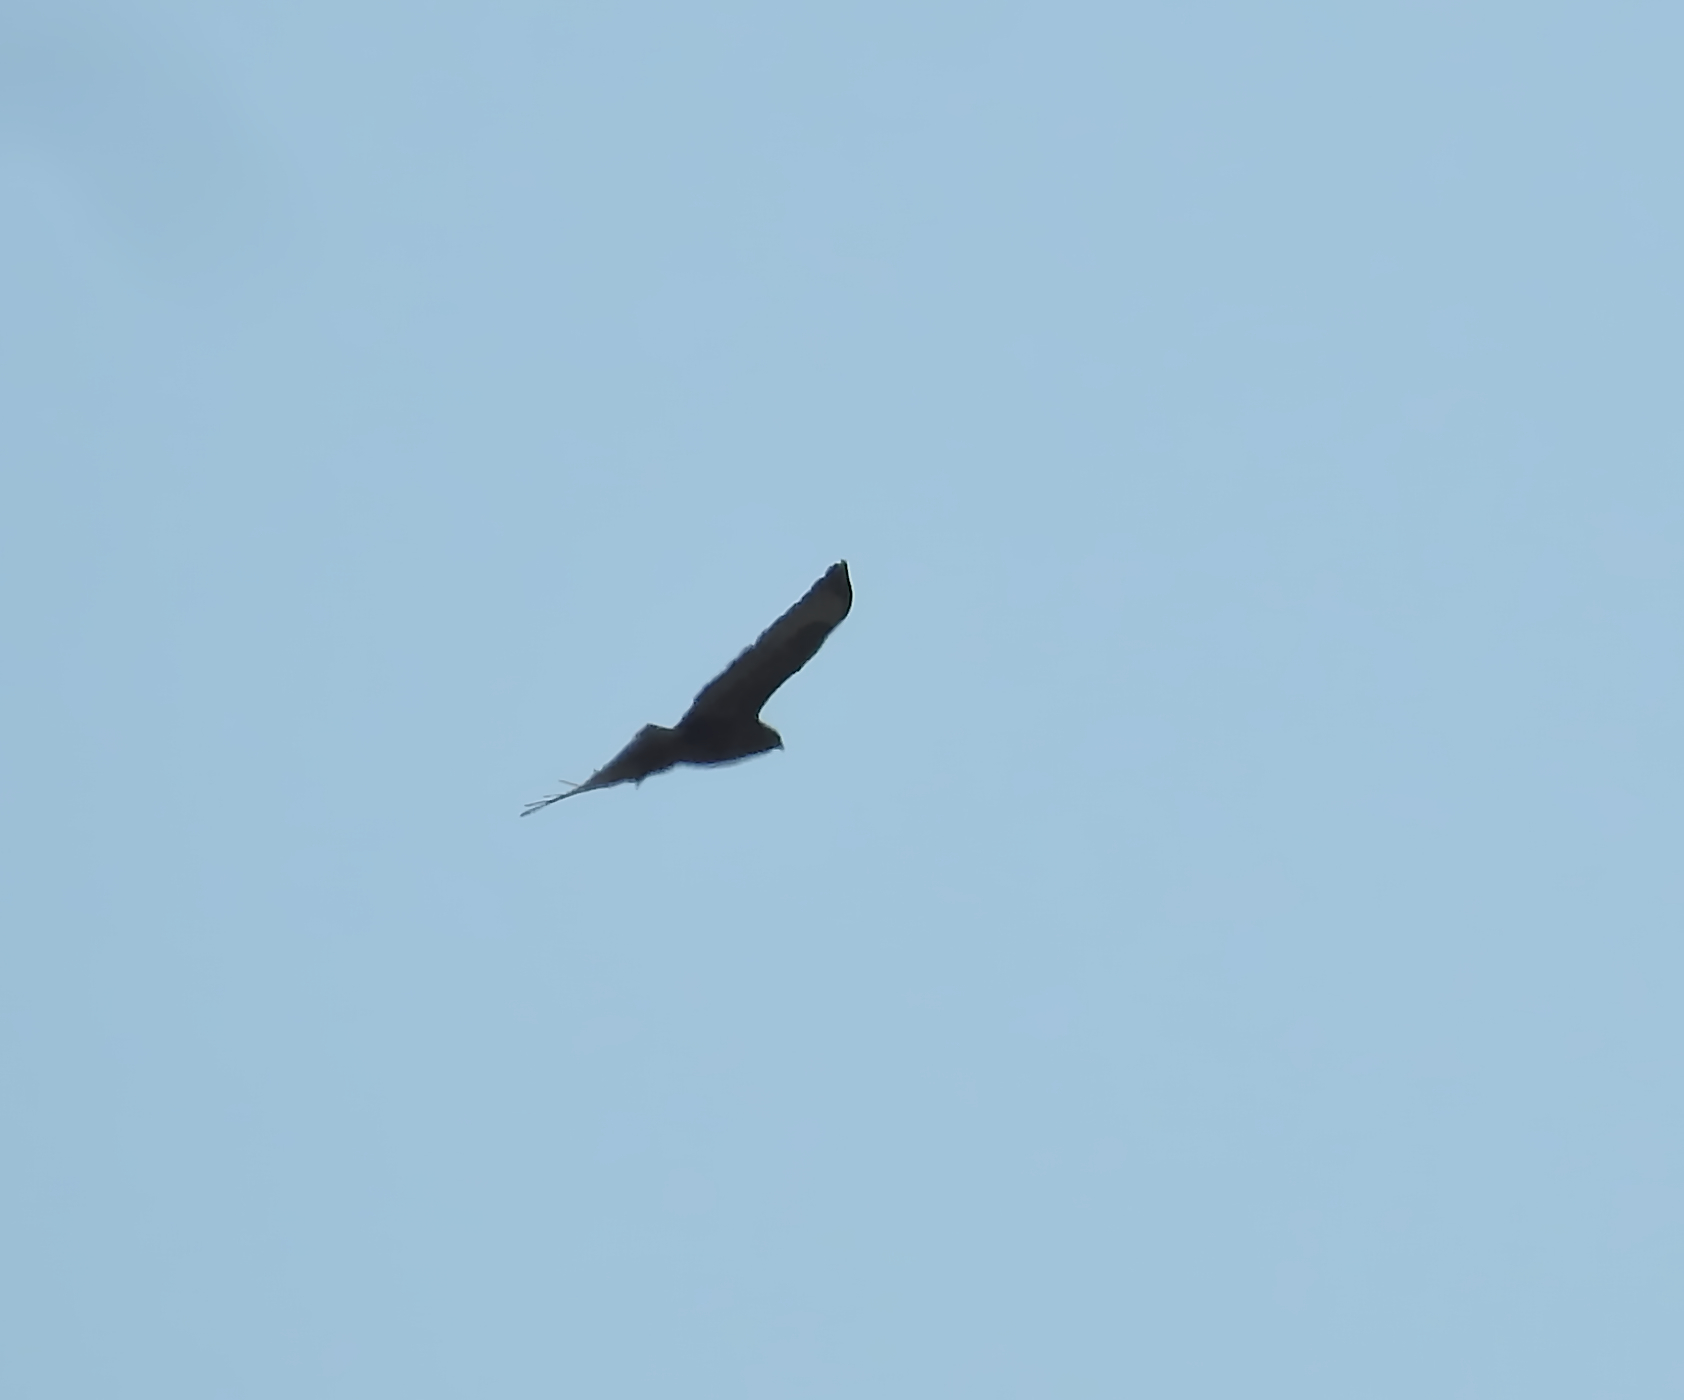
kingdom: Animalia
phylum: Chordata
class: Aves
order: Accipitriformes
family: Accipitridae
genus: Buteo
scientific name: Buteo buteo
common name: Common buzzard
